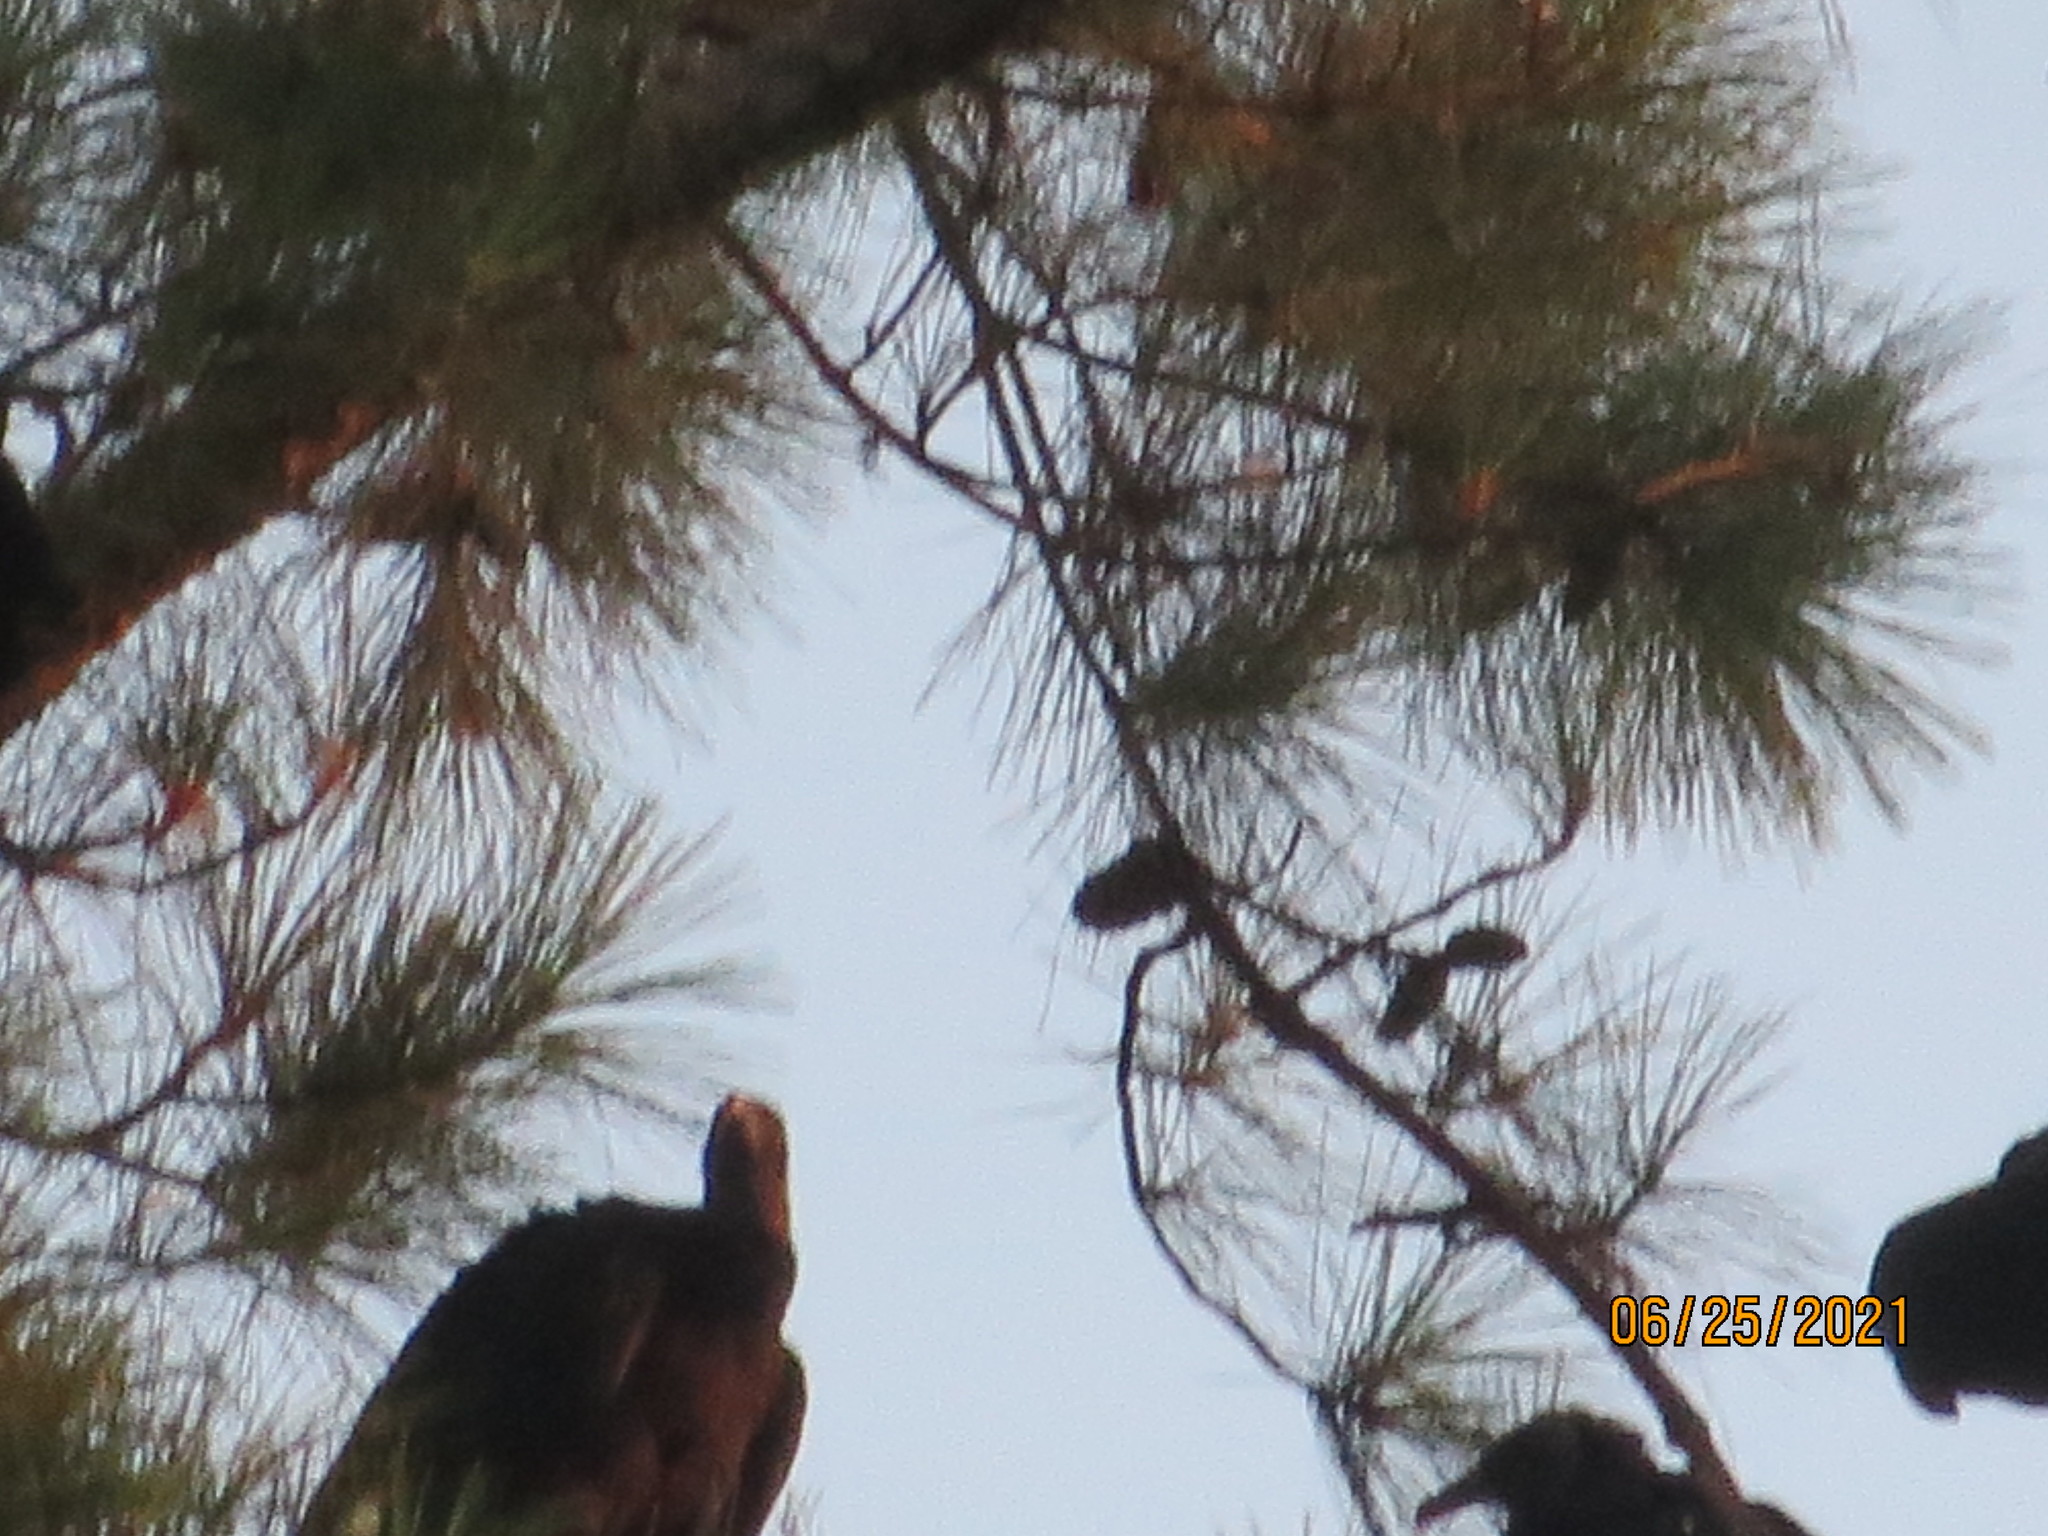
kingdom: Animalia
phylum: Chordata
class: Aves
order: Accipitriformes
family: Cathartidae
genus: Coragyps
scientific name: Coragyps atratus
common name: Black vulture
